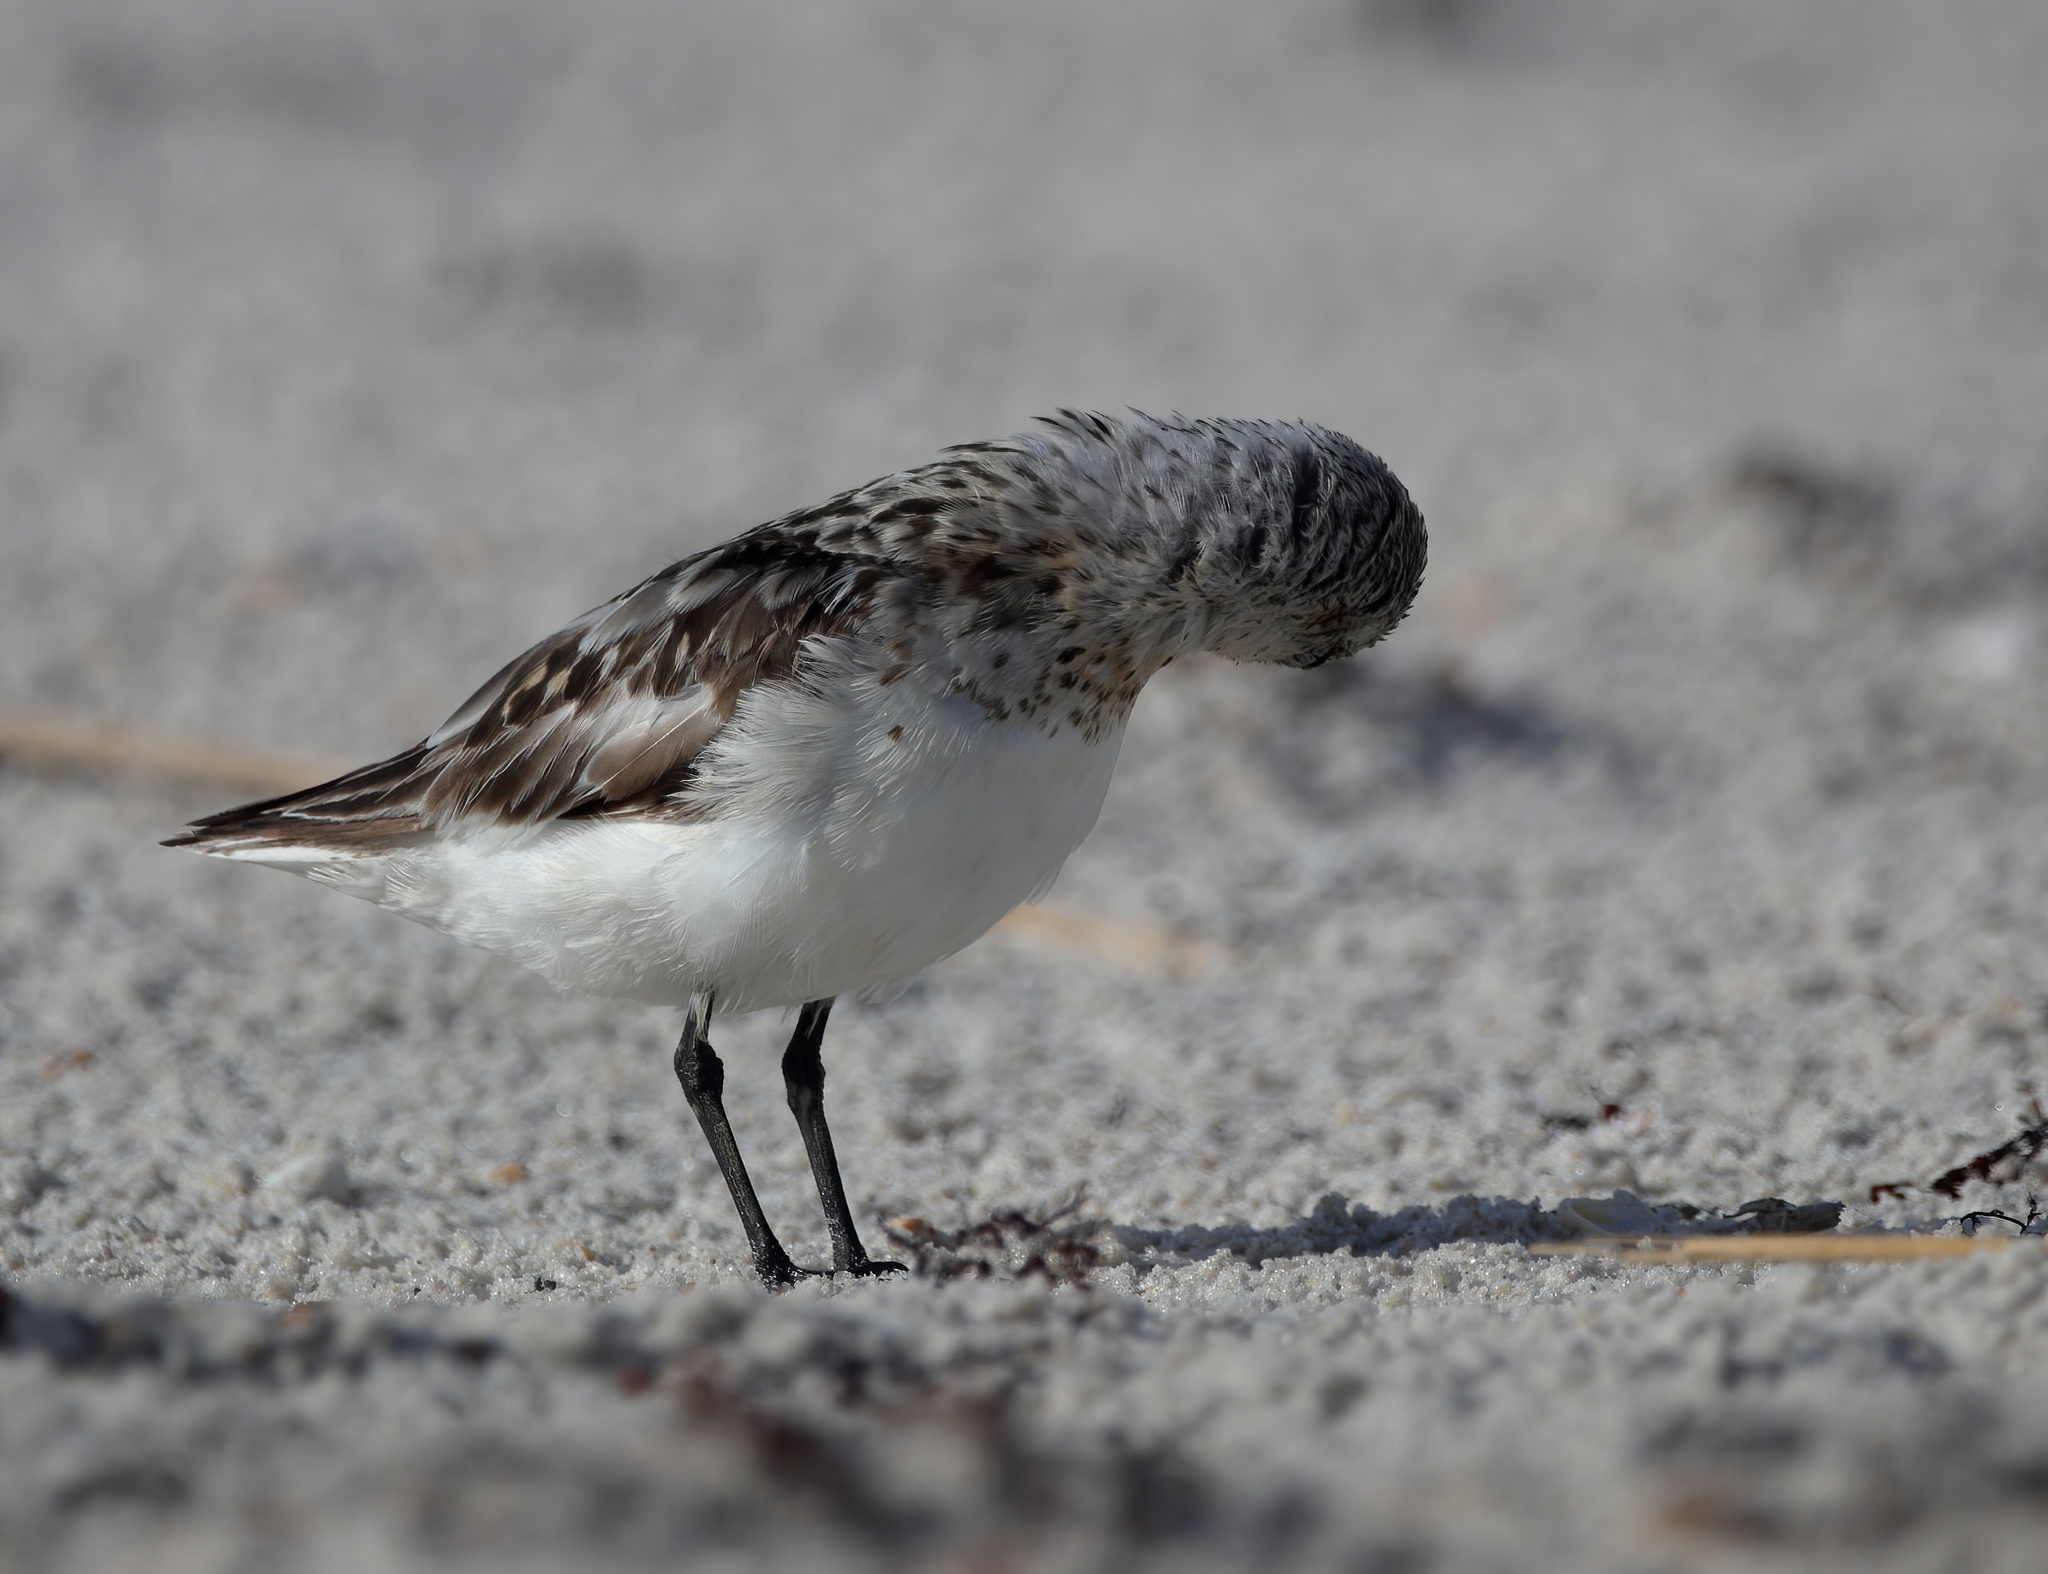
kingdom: Animalia
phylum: Chordata
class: Aves
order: Charadriiformes
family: Scolopacidae
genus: Calidris
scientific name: Calidris alba
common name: Sanderling
